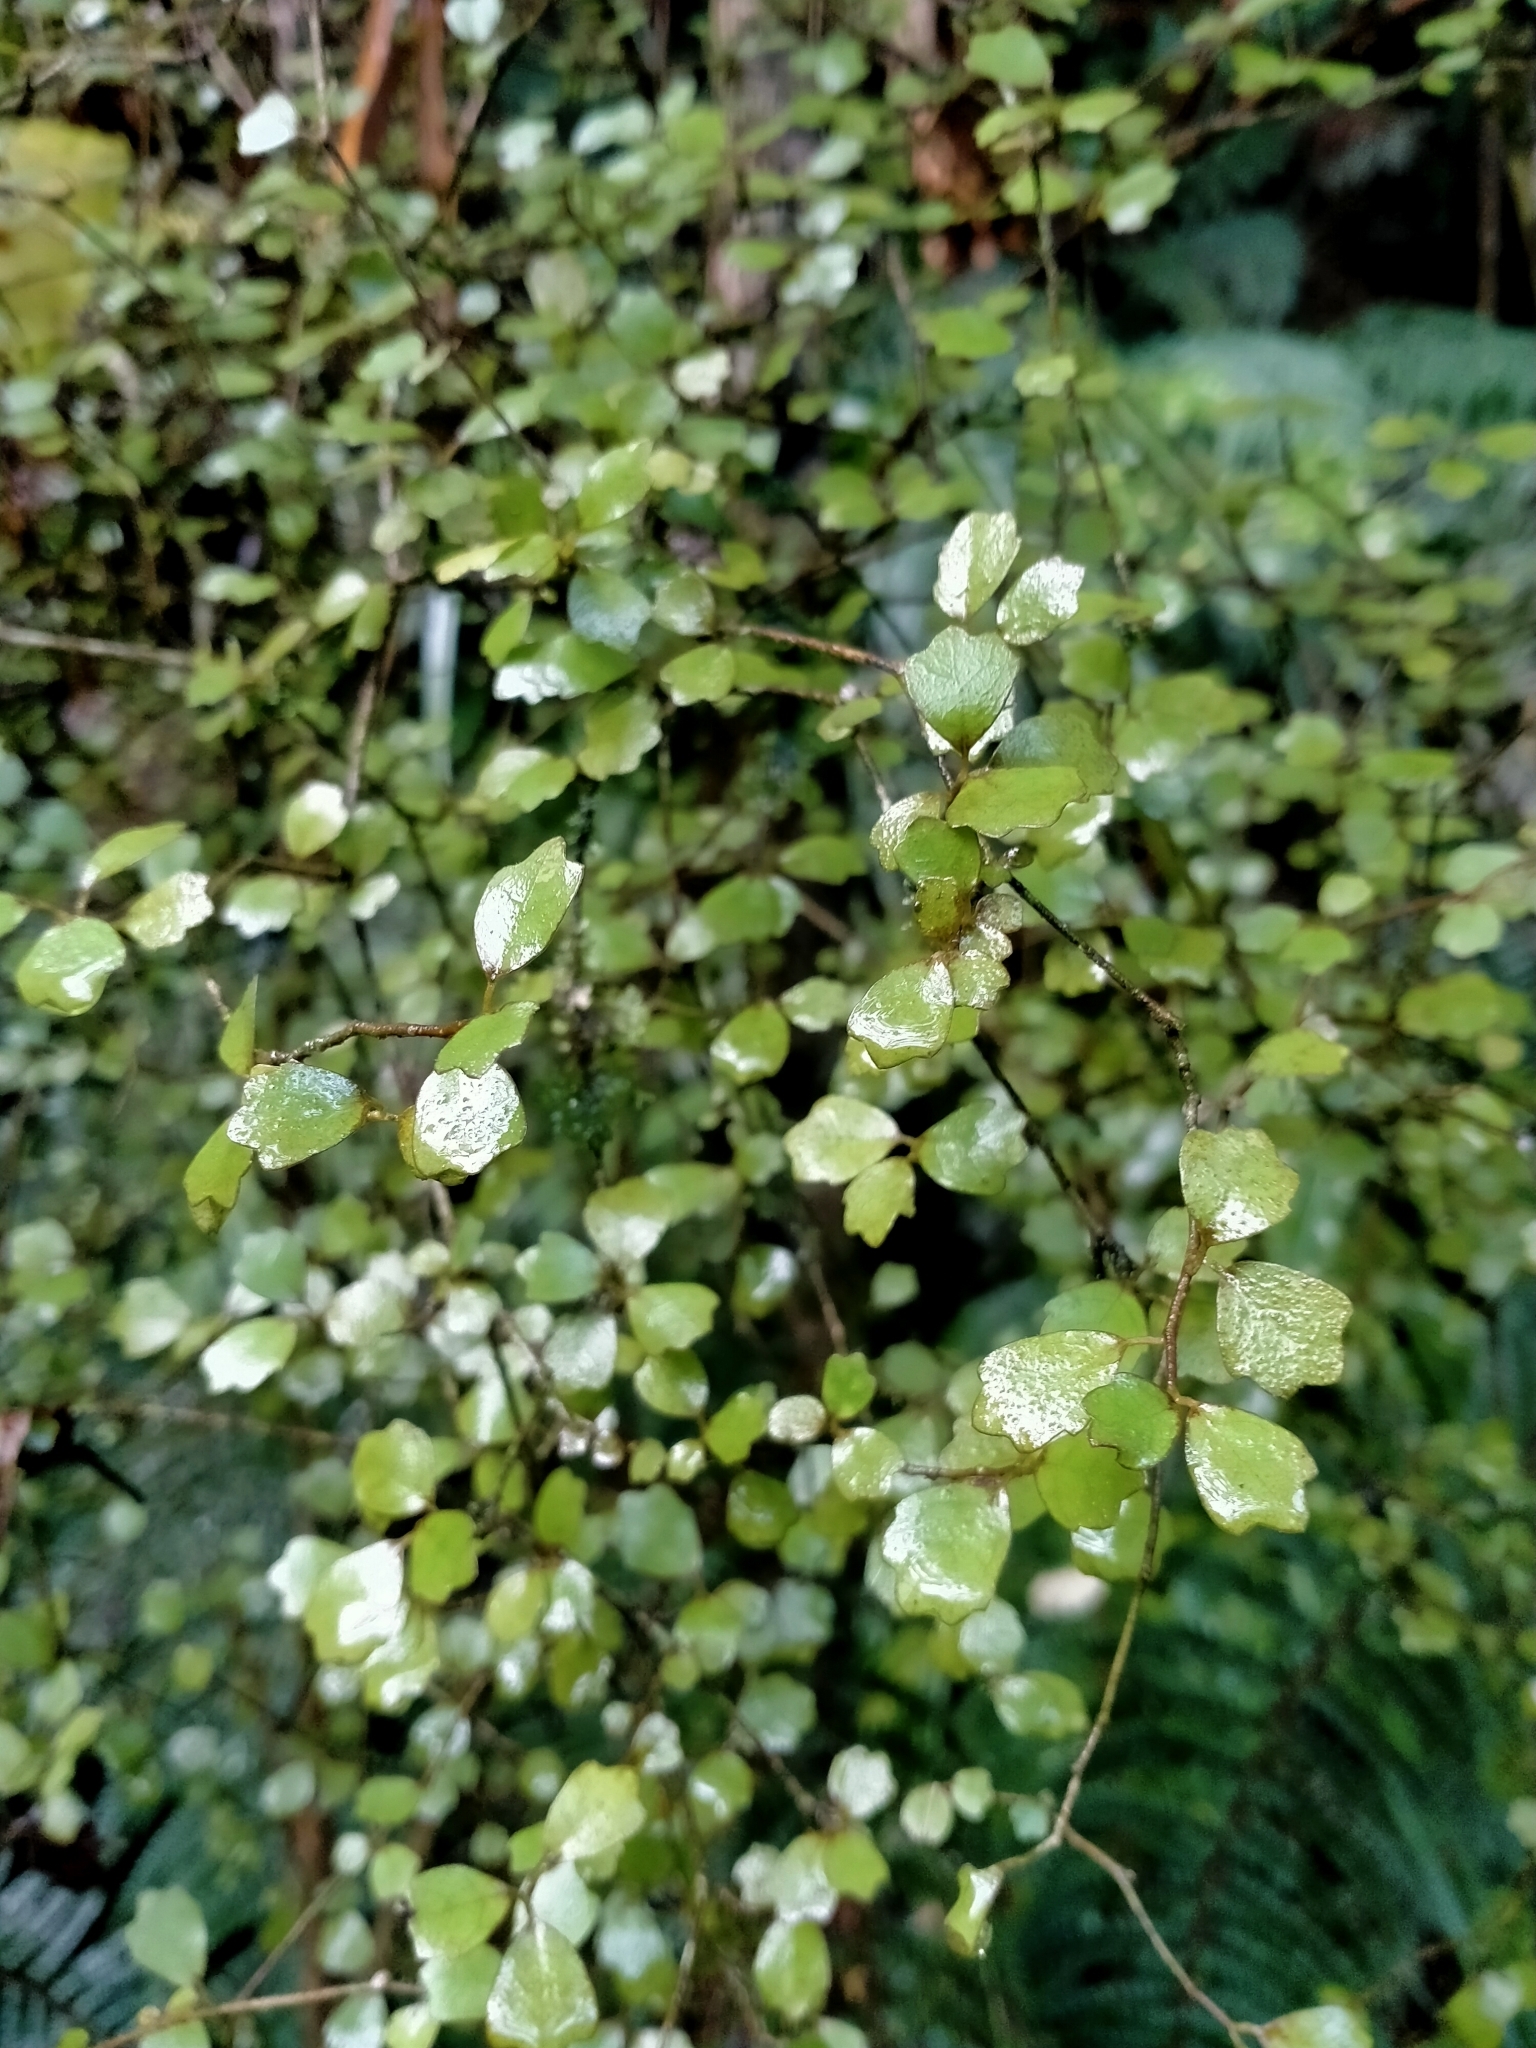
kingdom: Plantae
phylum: Tracheophyta
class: Magnoliopsida
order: Apiales
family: Pennantiaceae
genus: Pennantia
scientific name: Pennantia corymbosa
